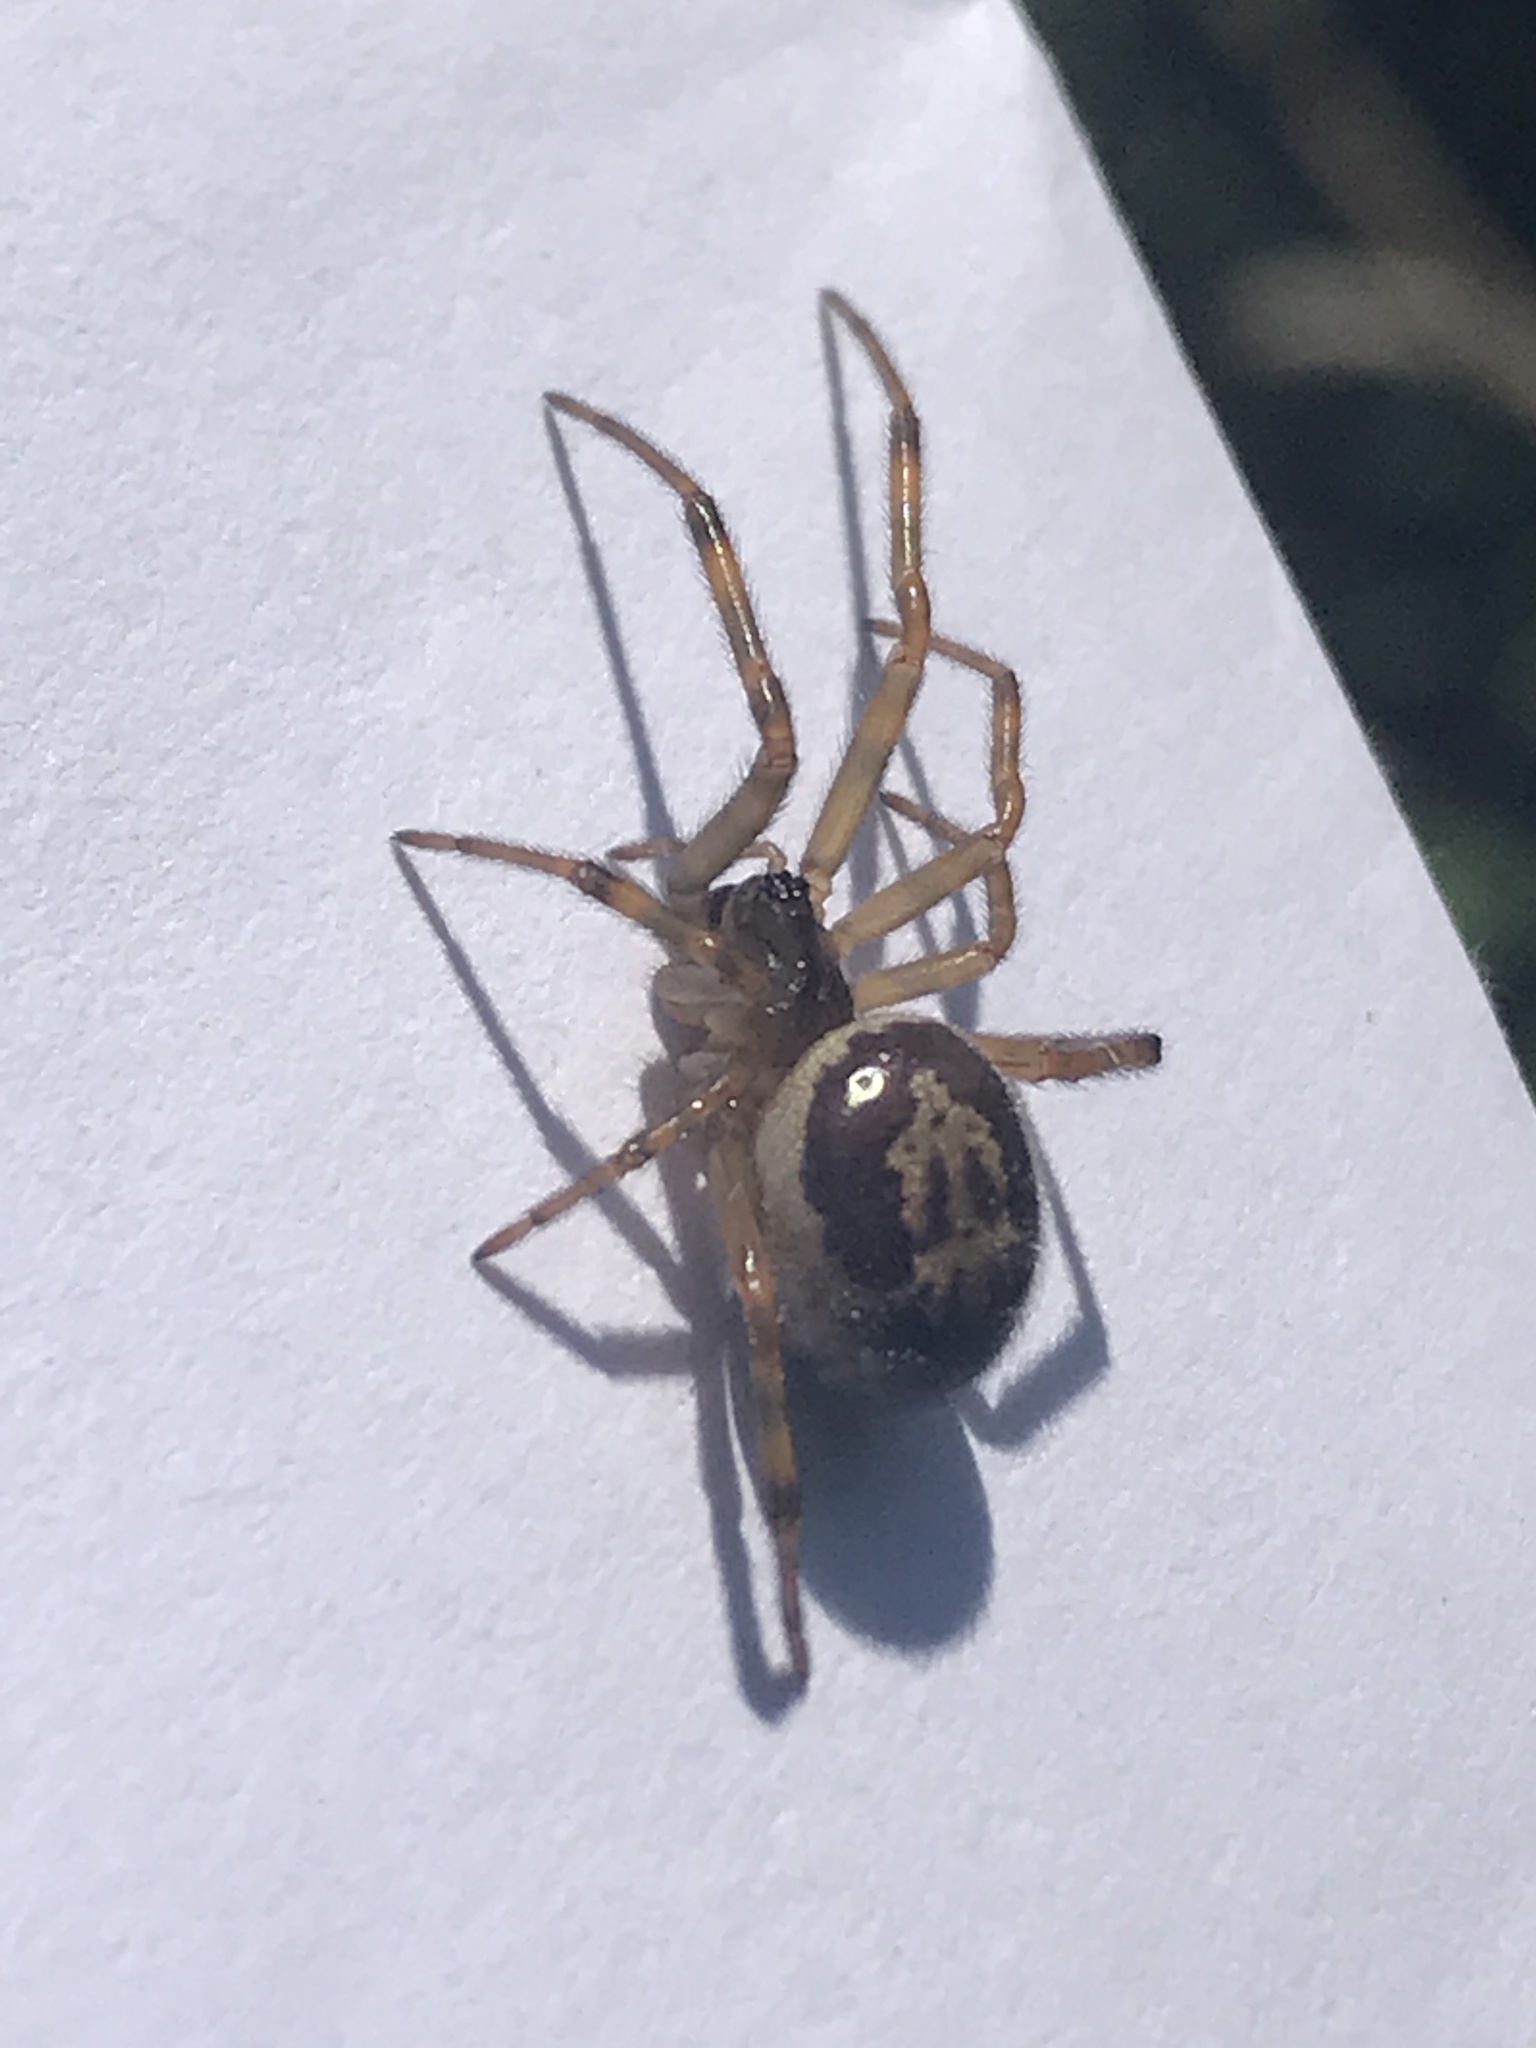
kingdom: Animalia
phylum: Arthropoda
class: Arachnida
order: Araneae
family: Theridiidae
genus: Steatoda
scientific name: Steatoda nobilis
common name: Cobweb weaver
